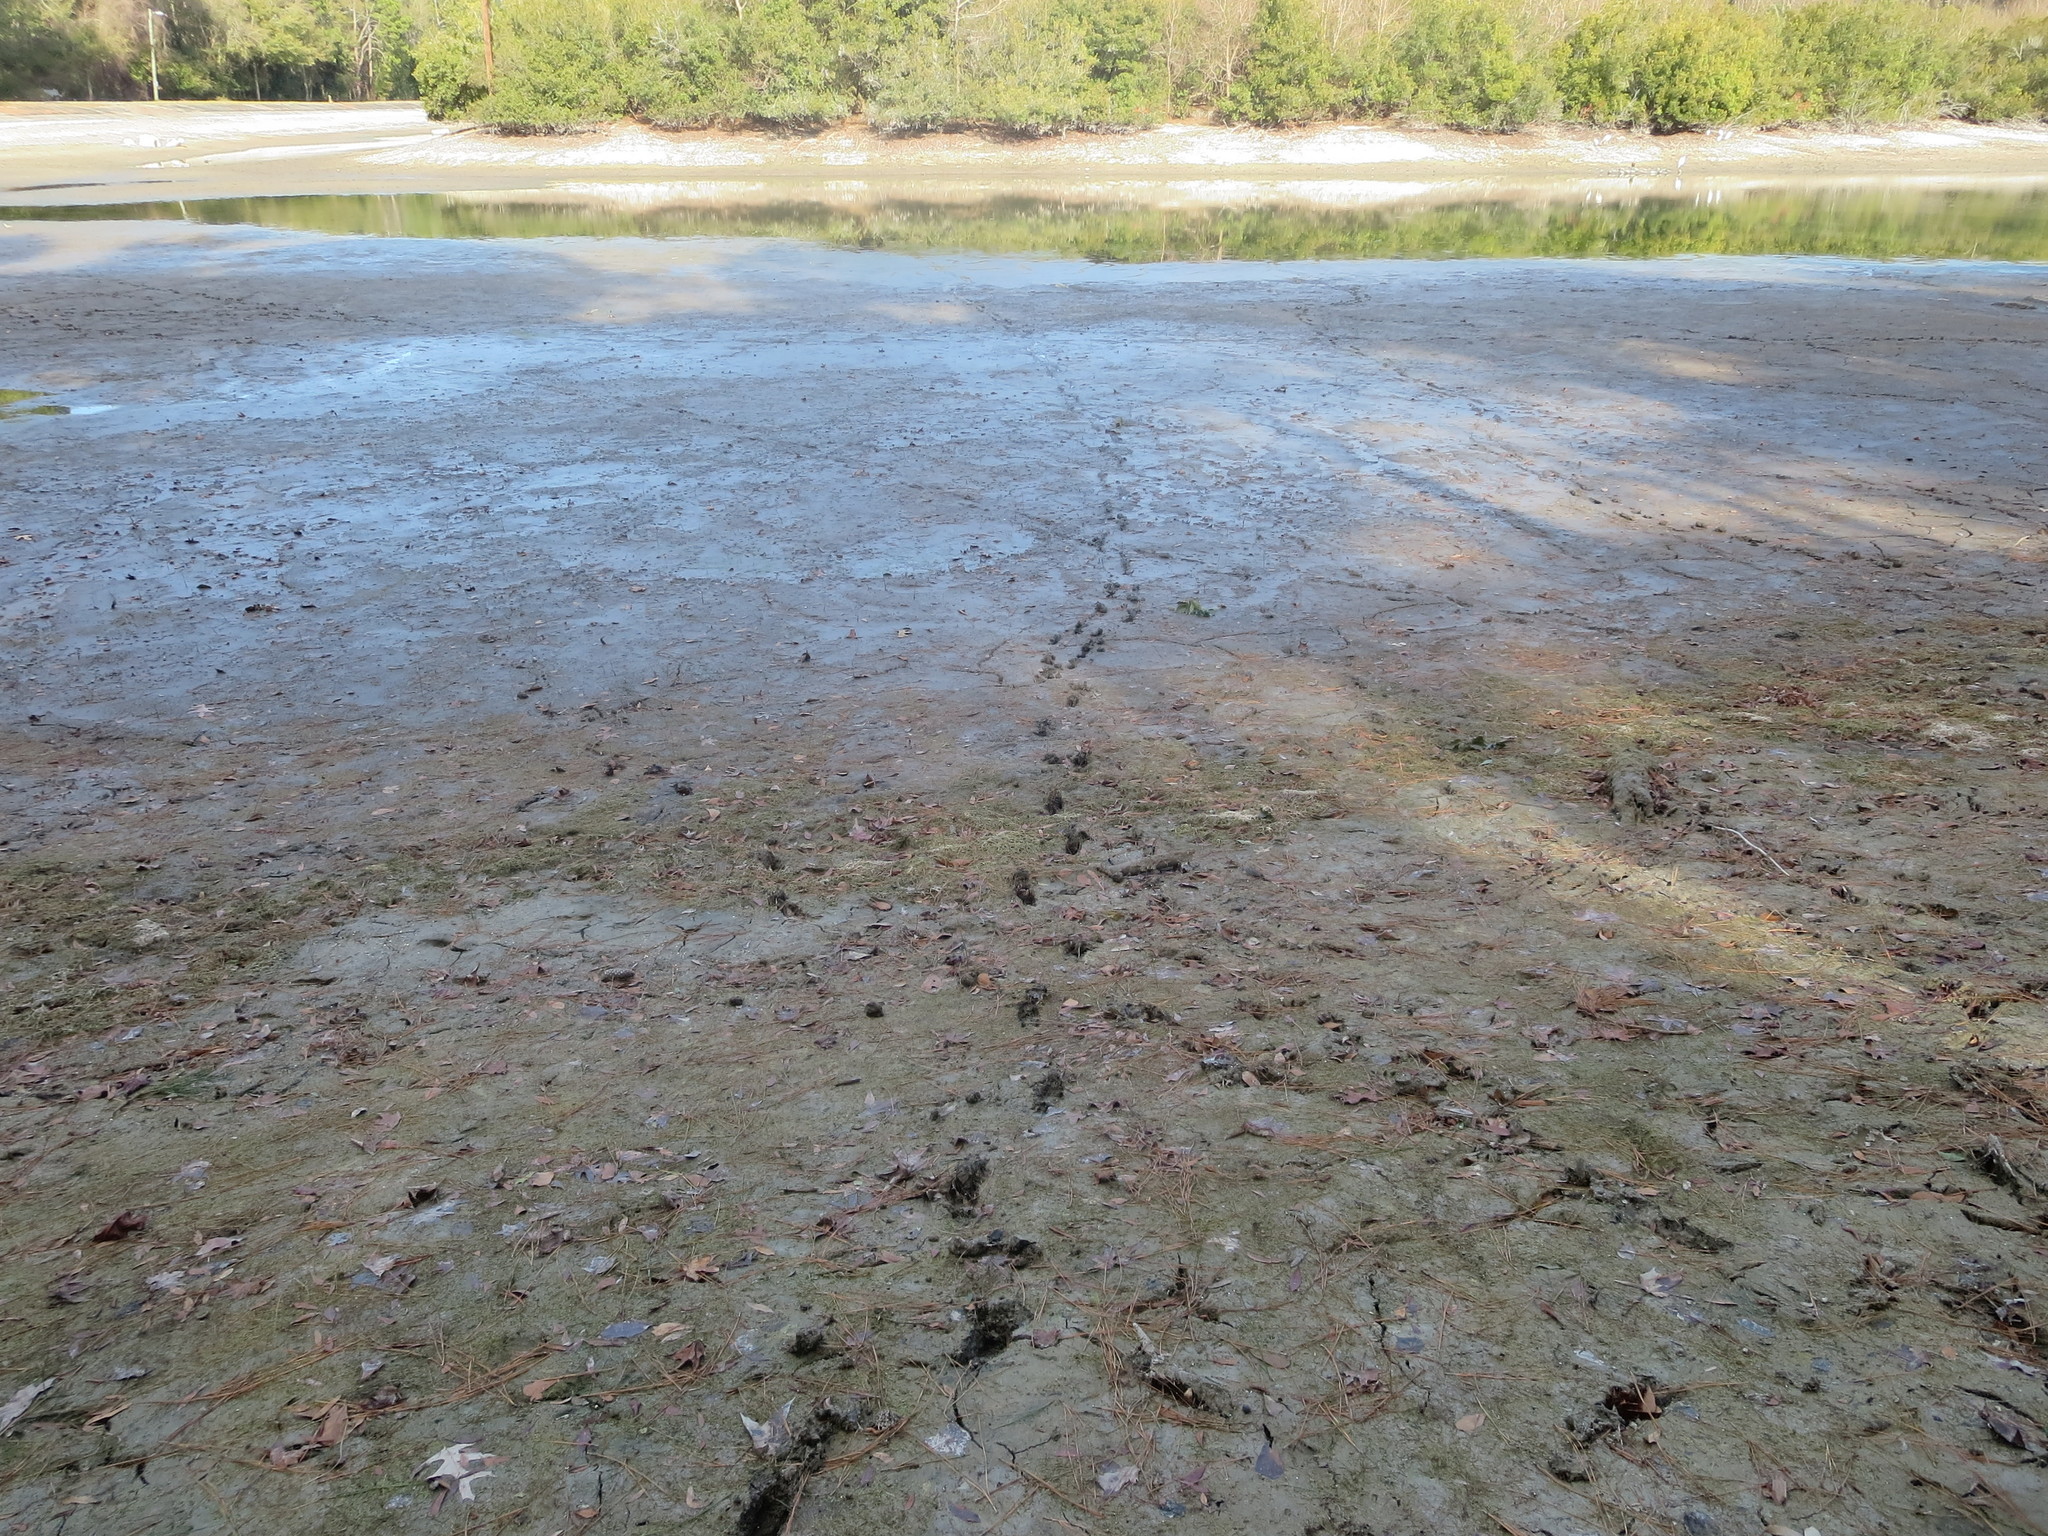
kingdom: Animalia
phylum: Chordata
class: Mammalia
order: Artiodactyla
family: Cervidae
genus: Odocoileus
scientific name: Odocoileus virginianus
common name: White-tailed deer
